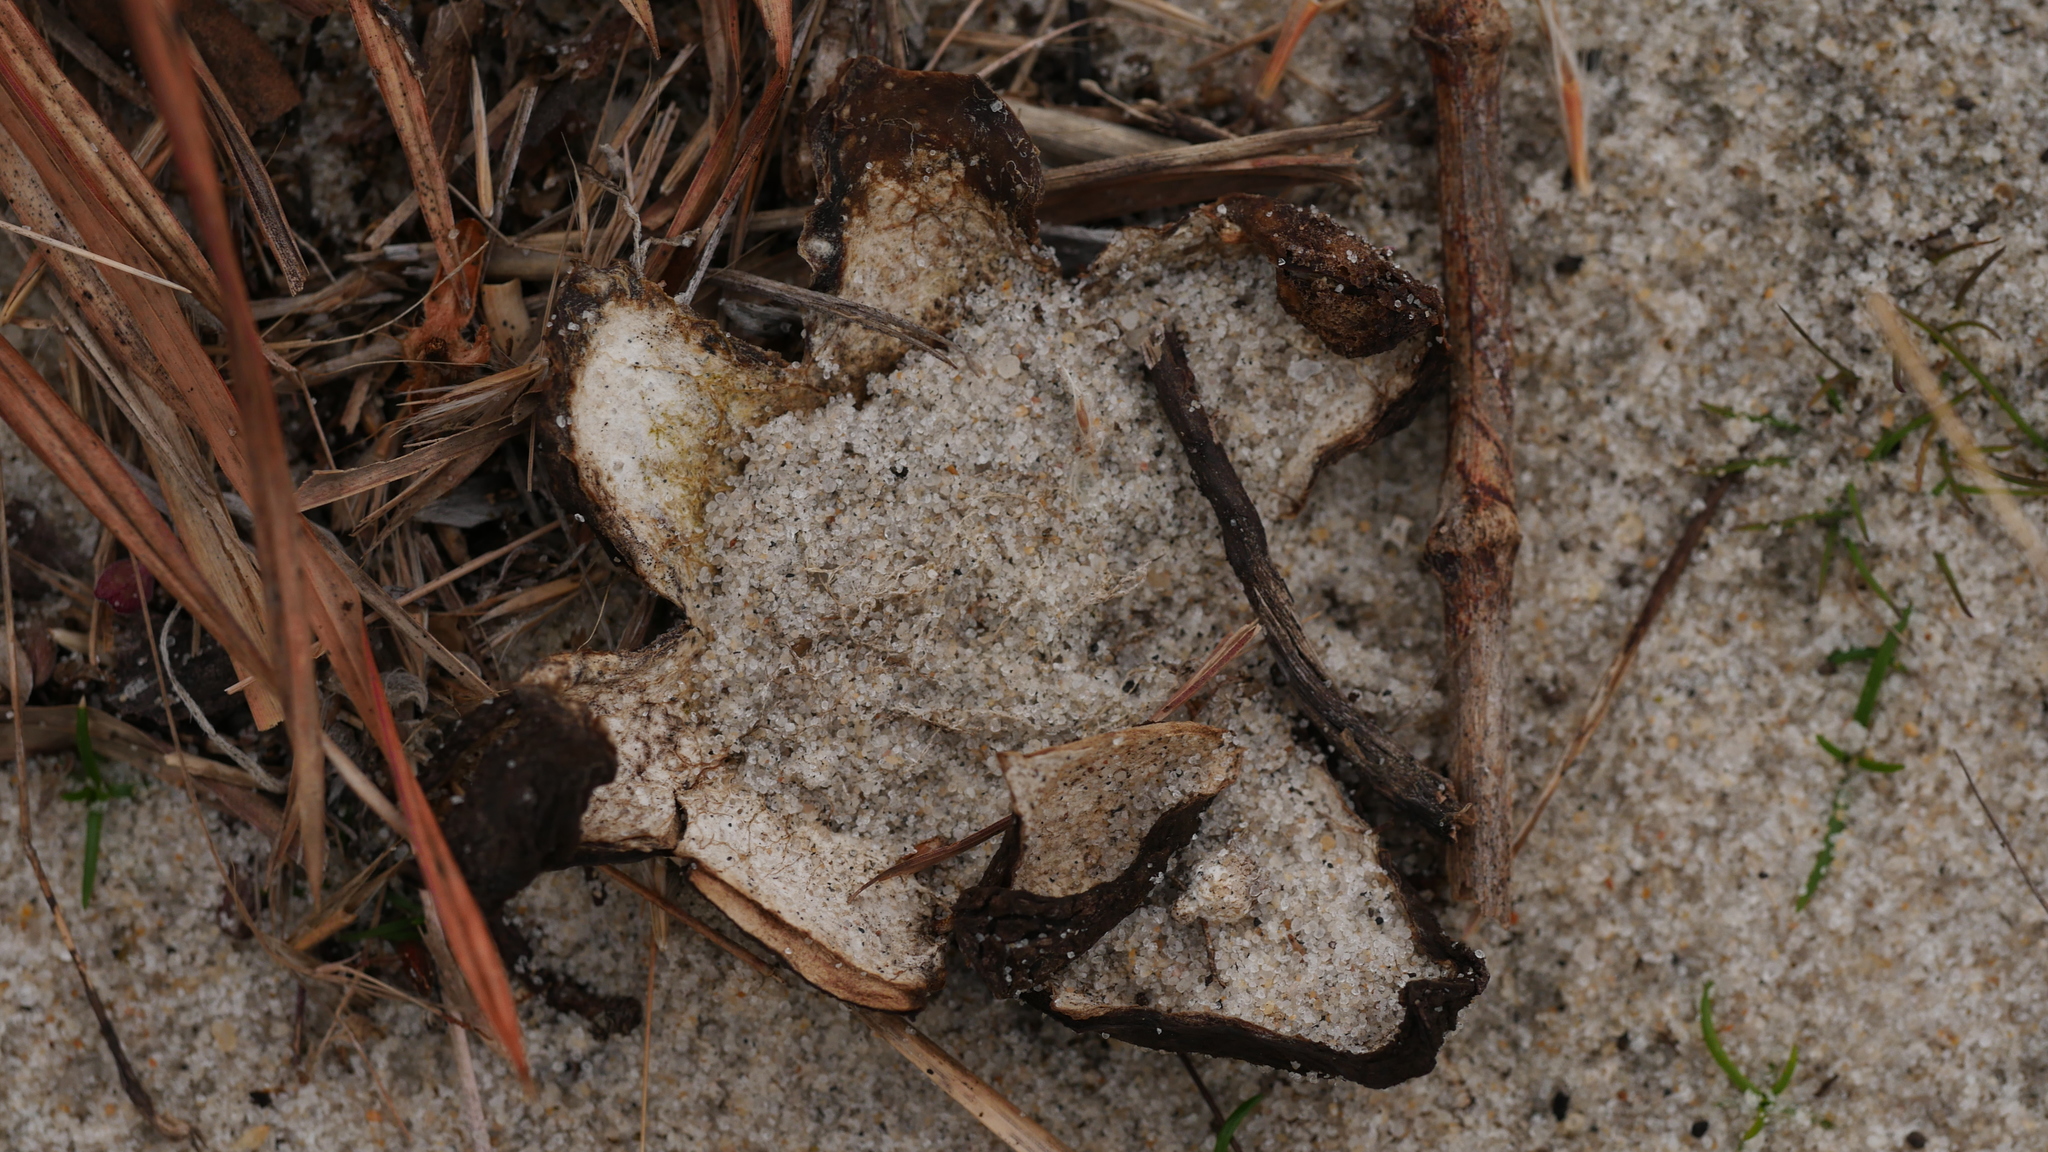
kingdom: Fungi
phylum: Basidiomycota
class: Agaricomycetes
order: Boletales
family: Diplocystidiaceae
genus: Astraeus
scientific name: Astraeus smithii
